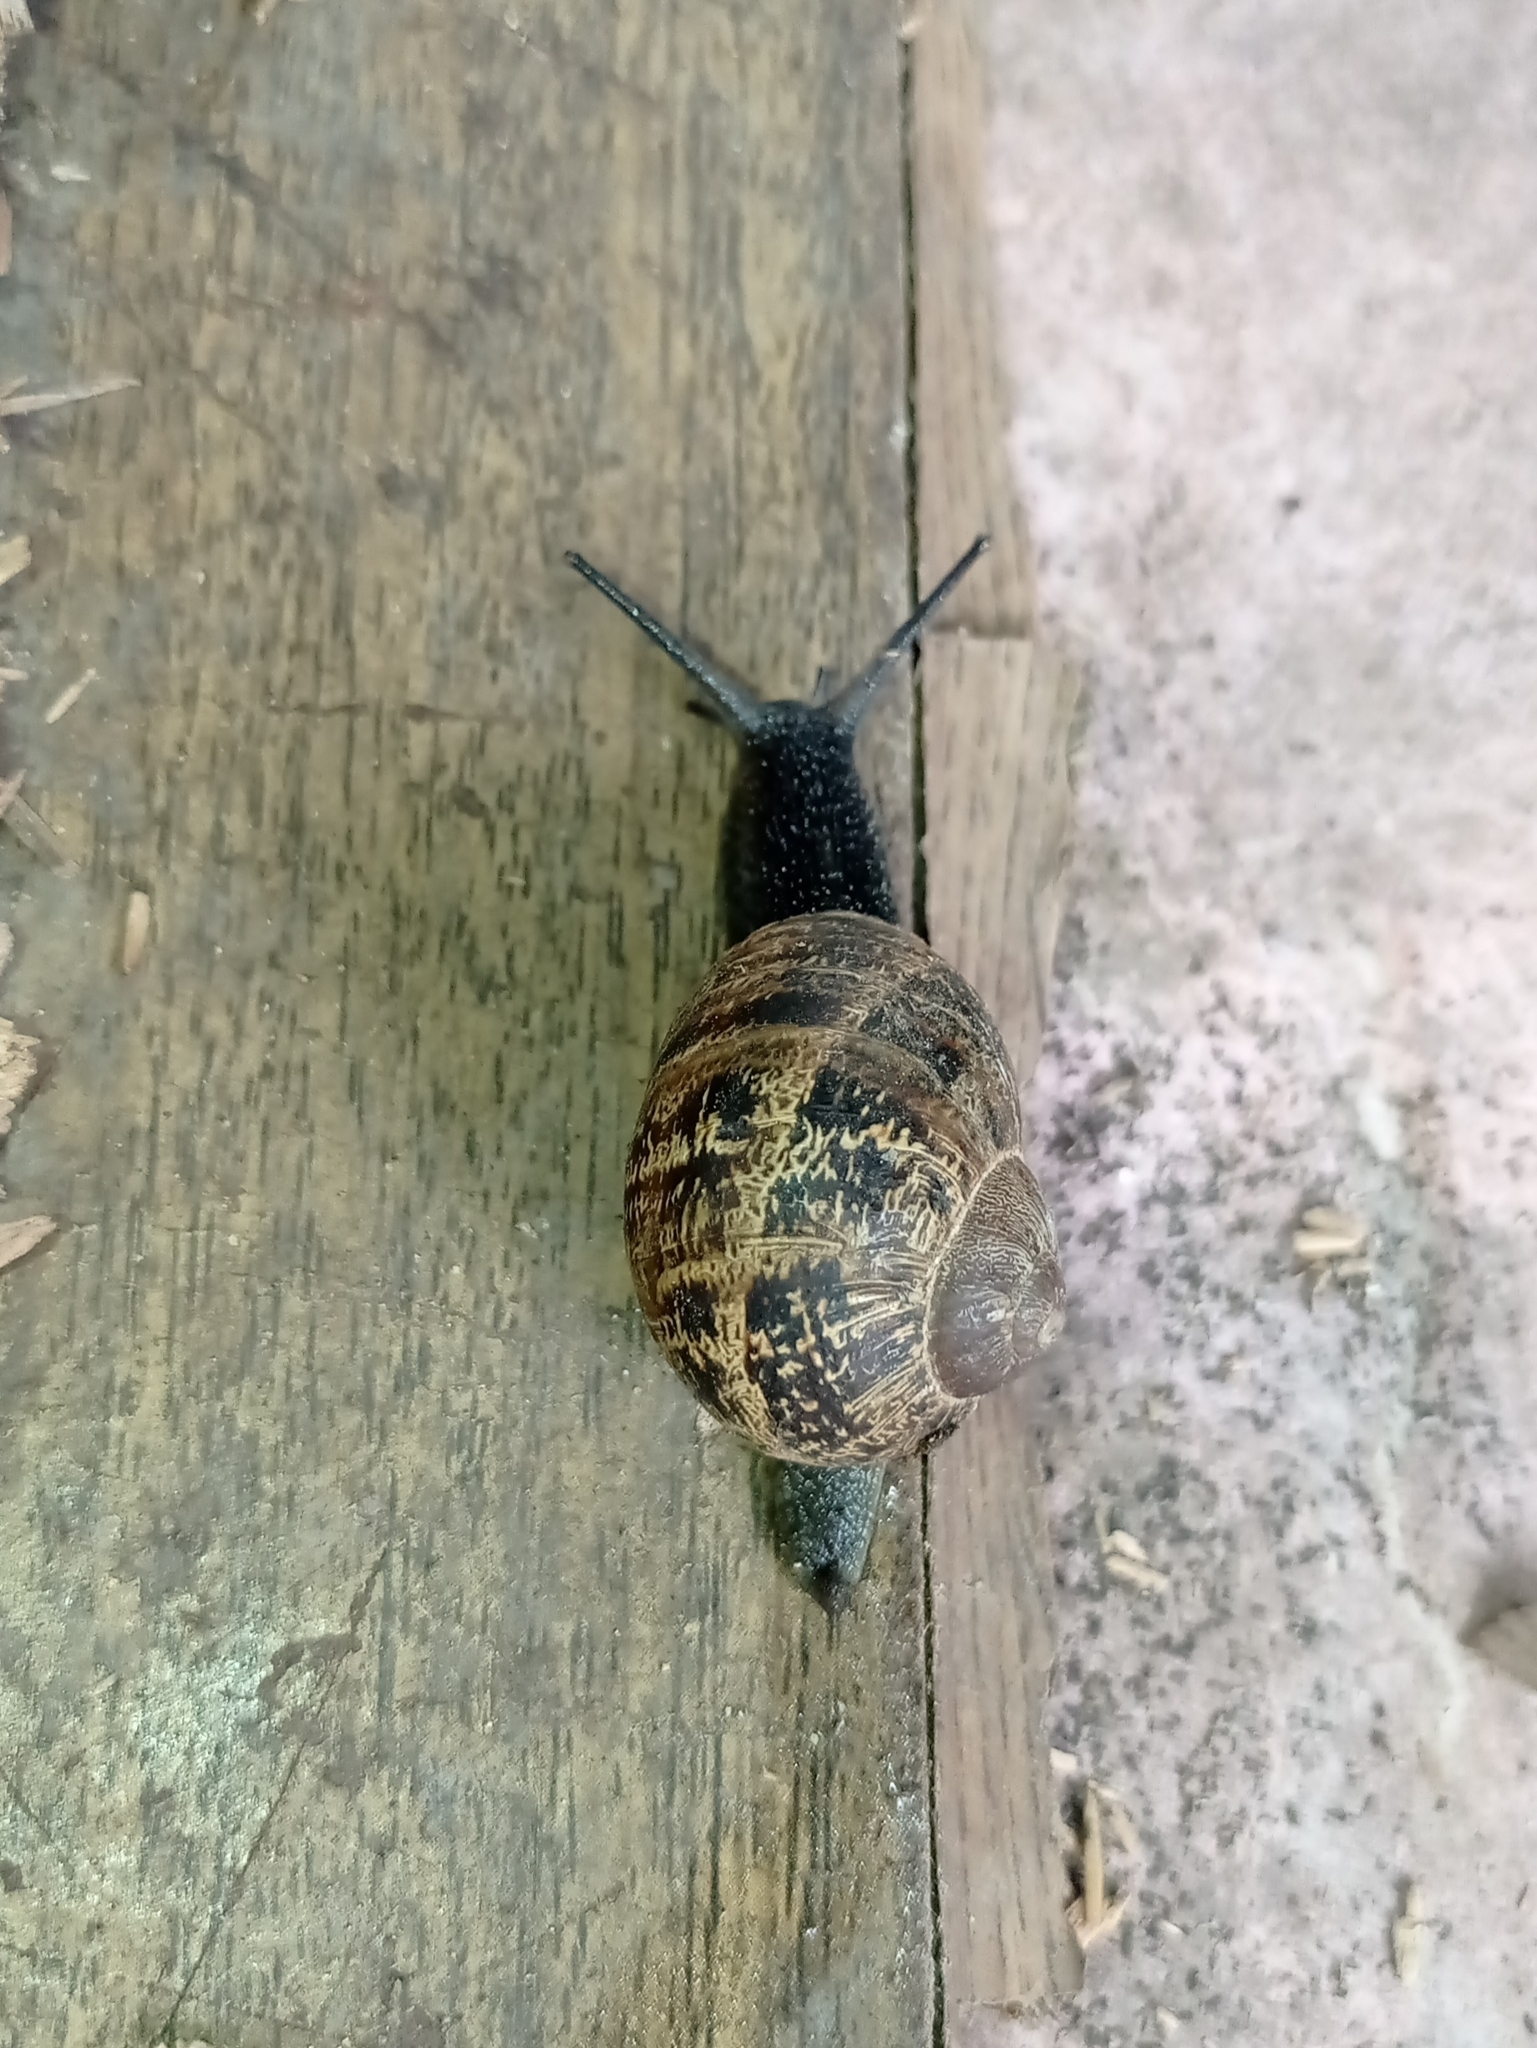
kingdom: Animalia
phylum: Mollusca
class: Gastropoda
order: Stylommatophora
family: Helicidae
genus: Cornu
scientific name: Cornu aspersum
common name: Brown garden snail
